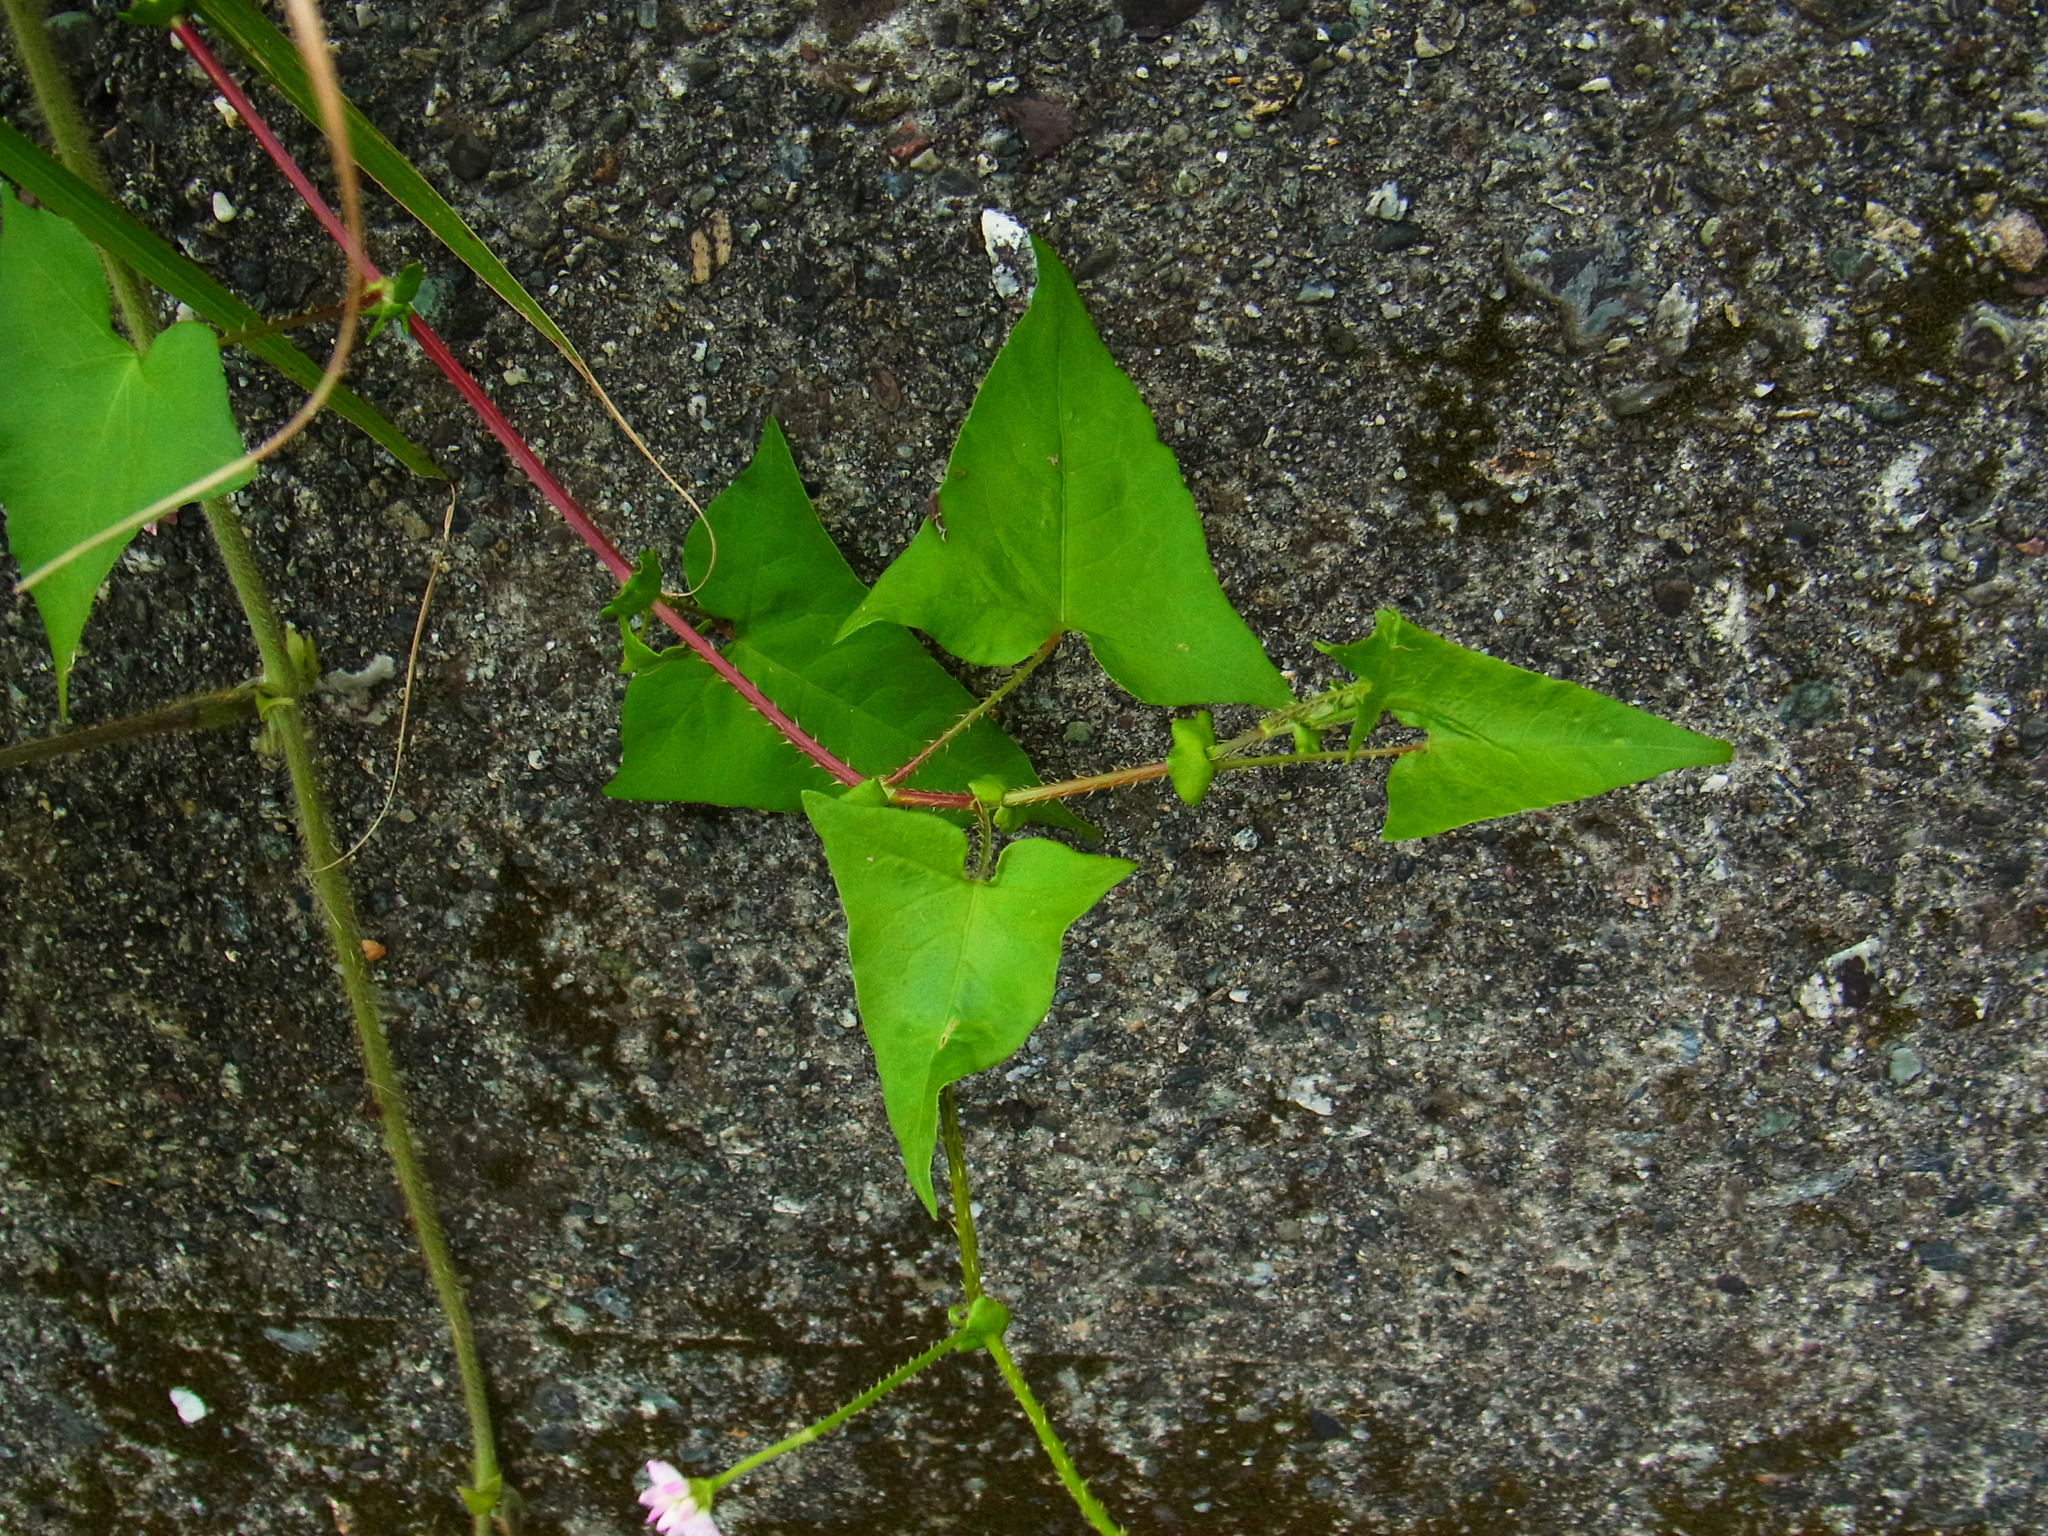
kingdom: Plantae
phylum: Tracheophyta
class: Magnoliopsida
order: Caryophyllales
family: Polygonaceae
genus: Persicaria
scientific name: Persicaria senticosa
